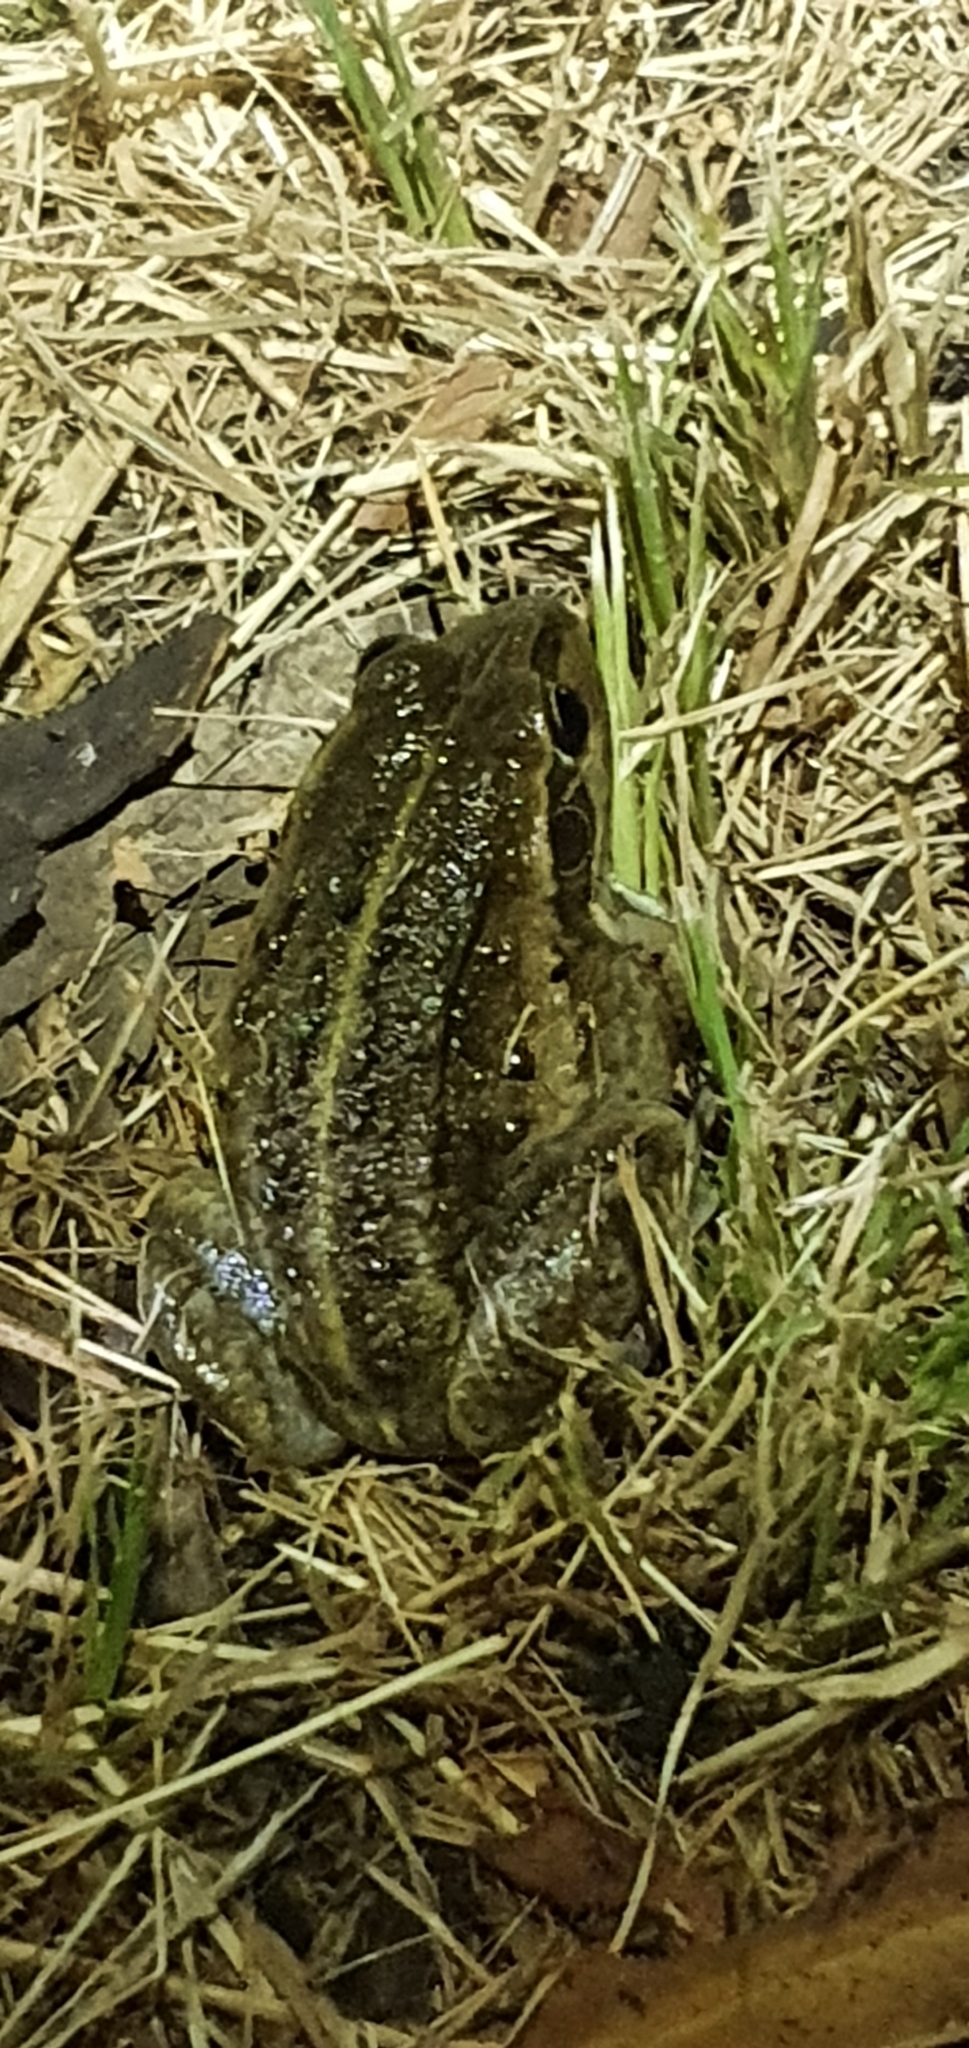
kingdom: Animalia
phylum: Chordata
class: Amphibia
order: Anura
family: Pelodryadidae
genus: Ranoidea
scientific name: Ranoidea alboguttata
